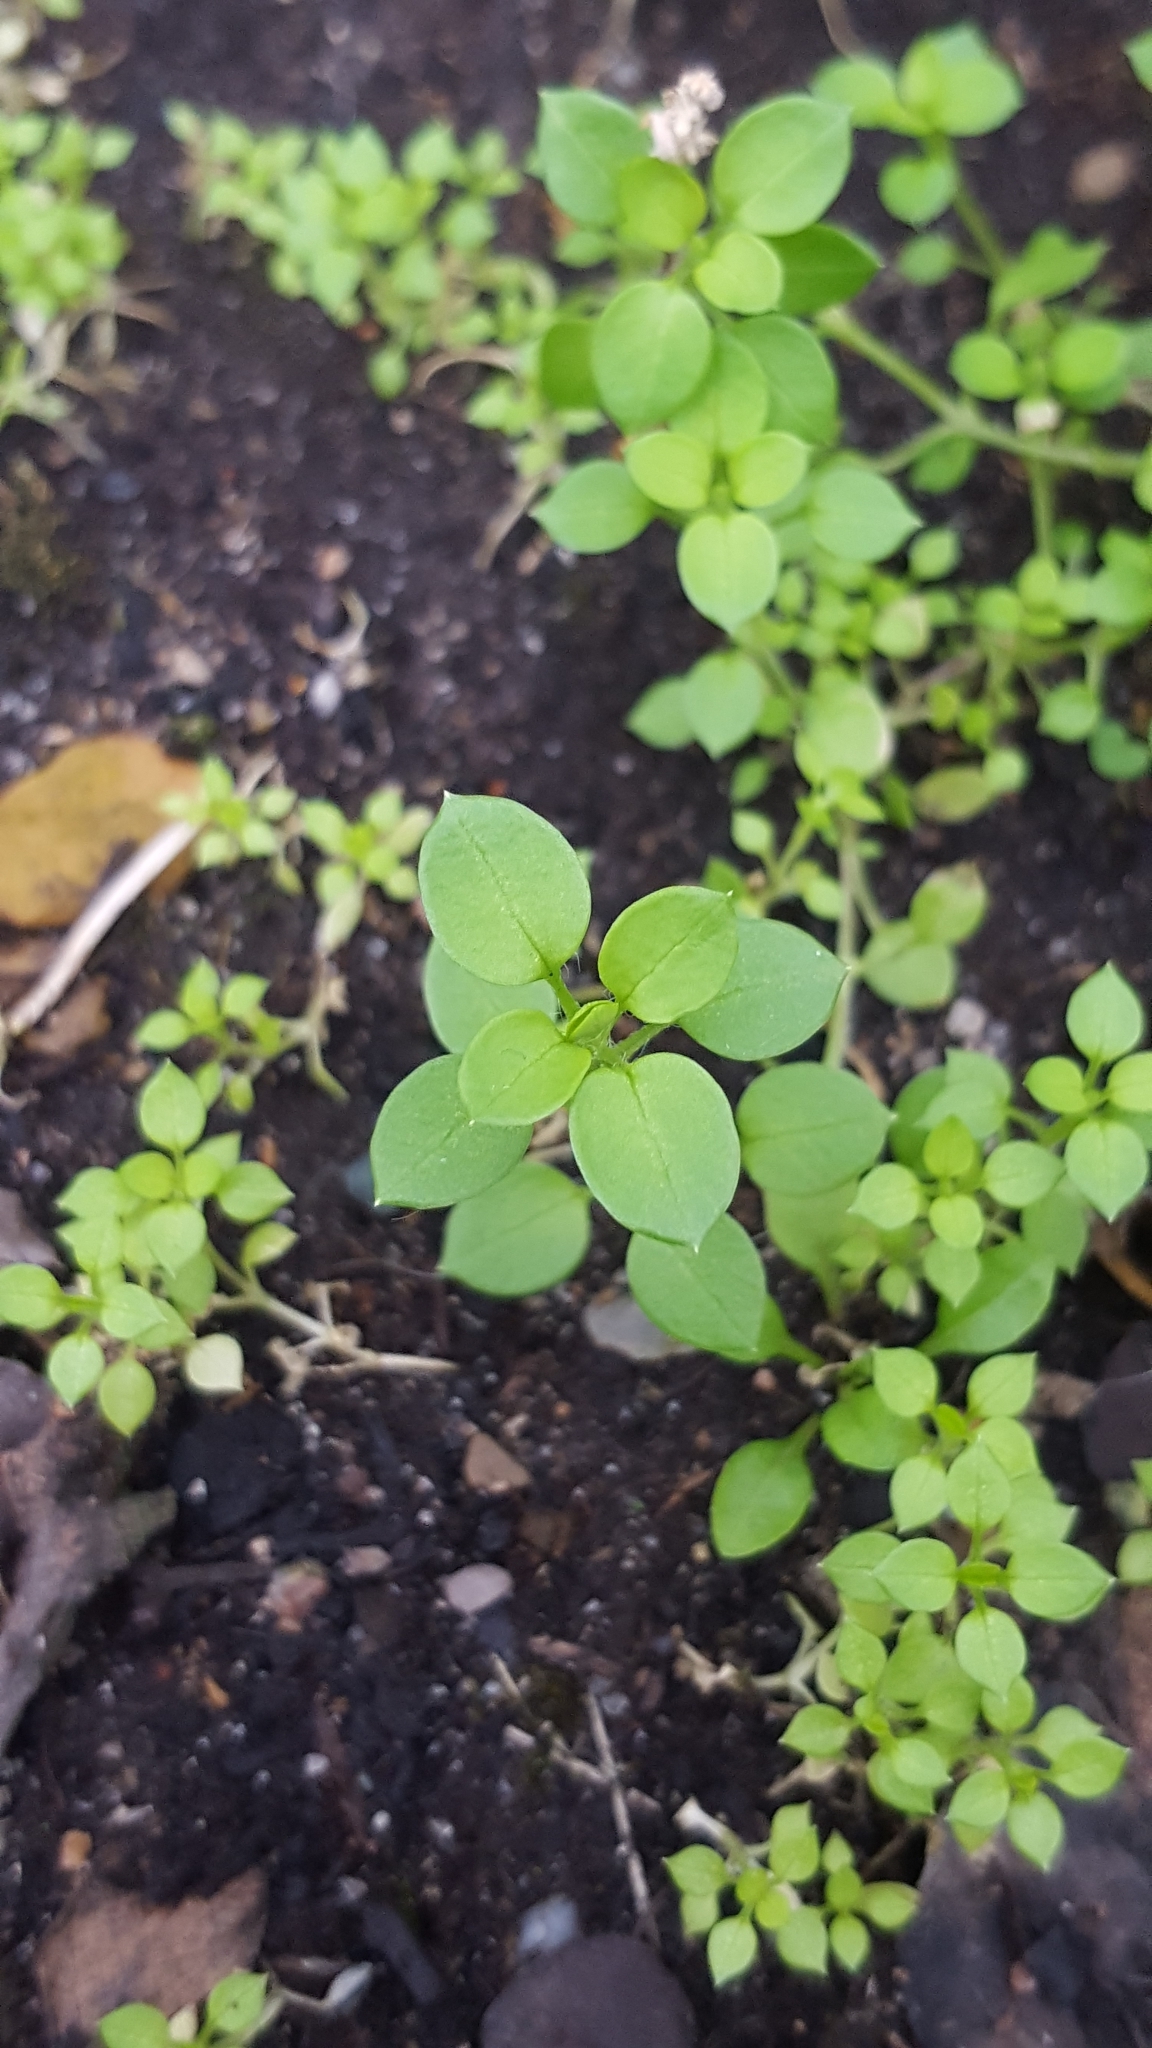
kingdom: Plantae
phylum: Tracheophyta
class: Magnoliopsida
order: Caryophyllales
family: Caryophyllaceae
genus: Stellaria
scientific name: Stellaria media
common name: Common chickweed
